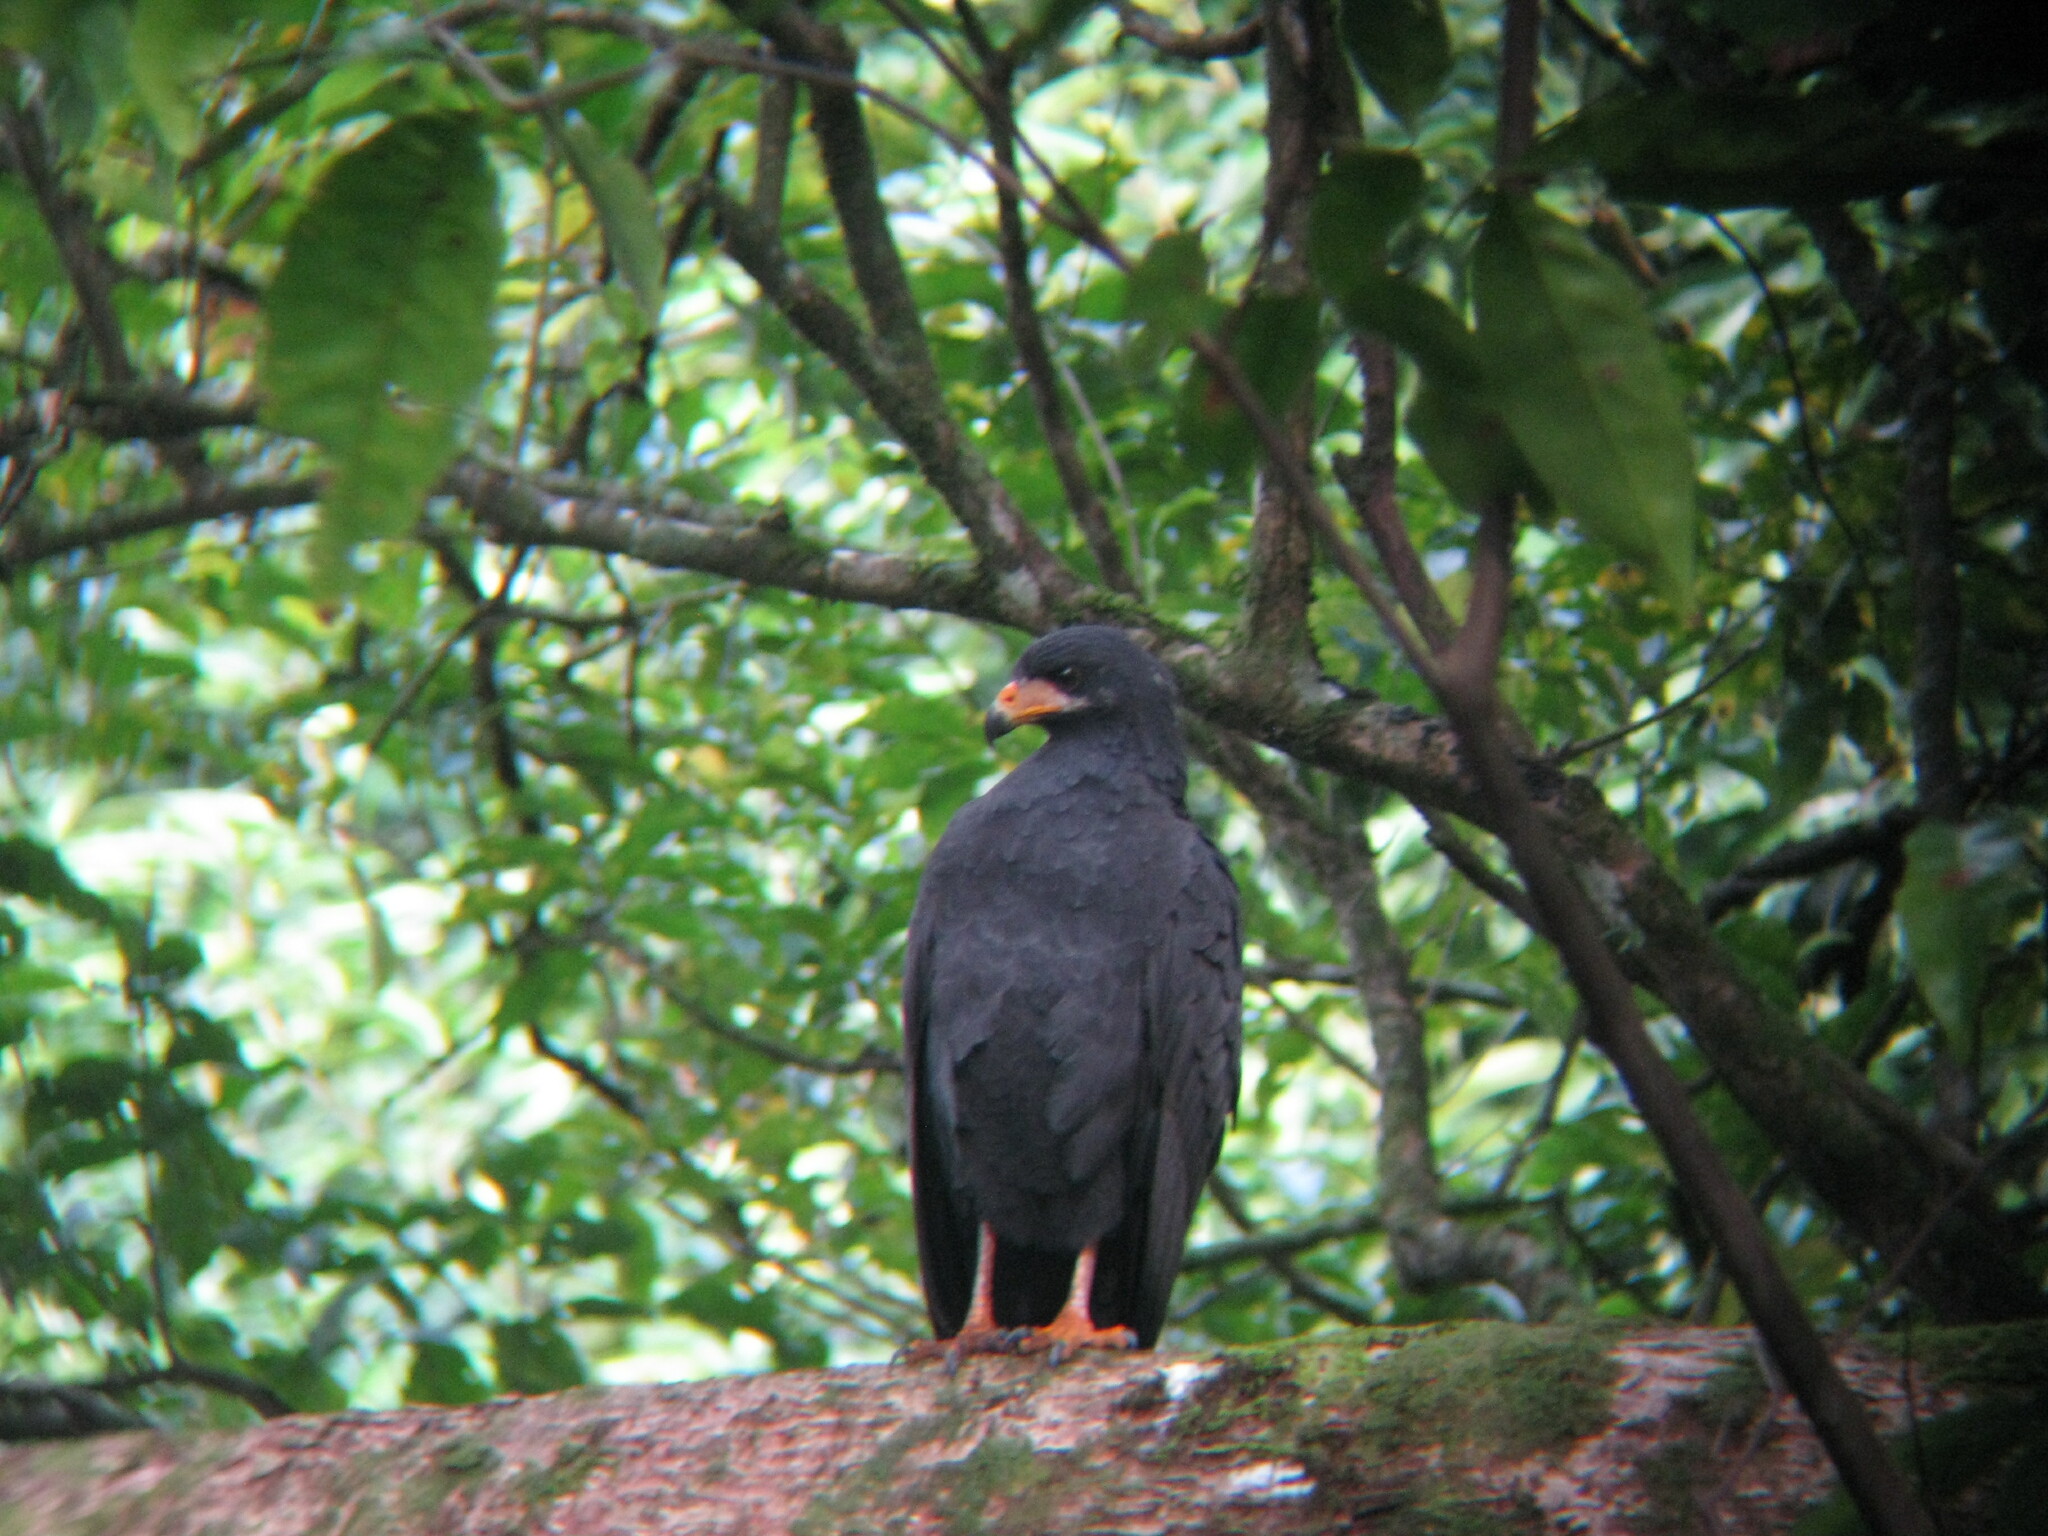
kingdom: Animalia
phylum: Chordata
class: Aves
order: Accipitriformes
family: Accipitridae
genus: Buteogallus
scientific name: Buteogallus anthracinus
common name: Common black hawk
